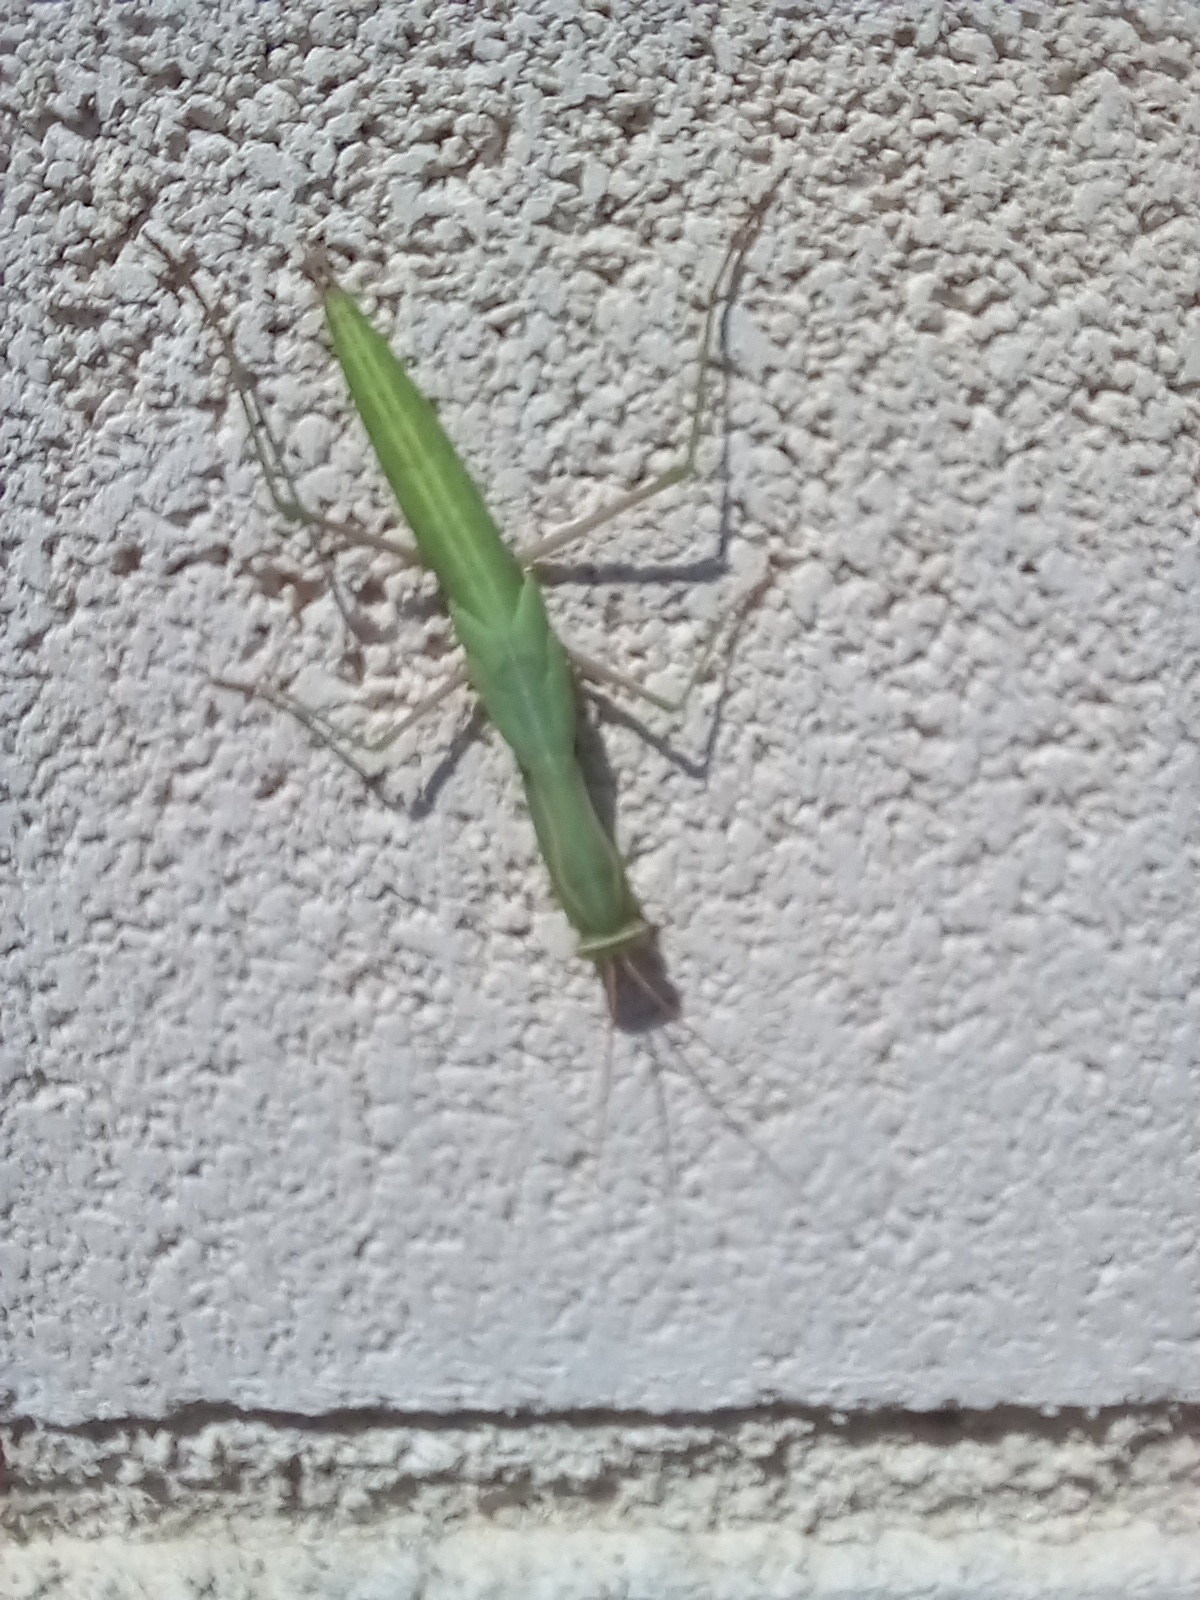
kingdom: Animalia
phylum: Arthropoda
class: Insecta
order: Mantodea
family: Mantidae
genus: Mantis
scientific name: Mantis religiosa
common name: Praying mantis
